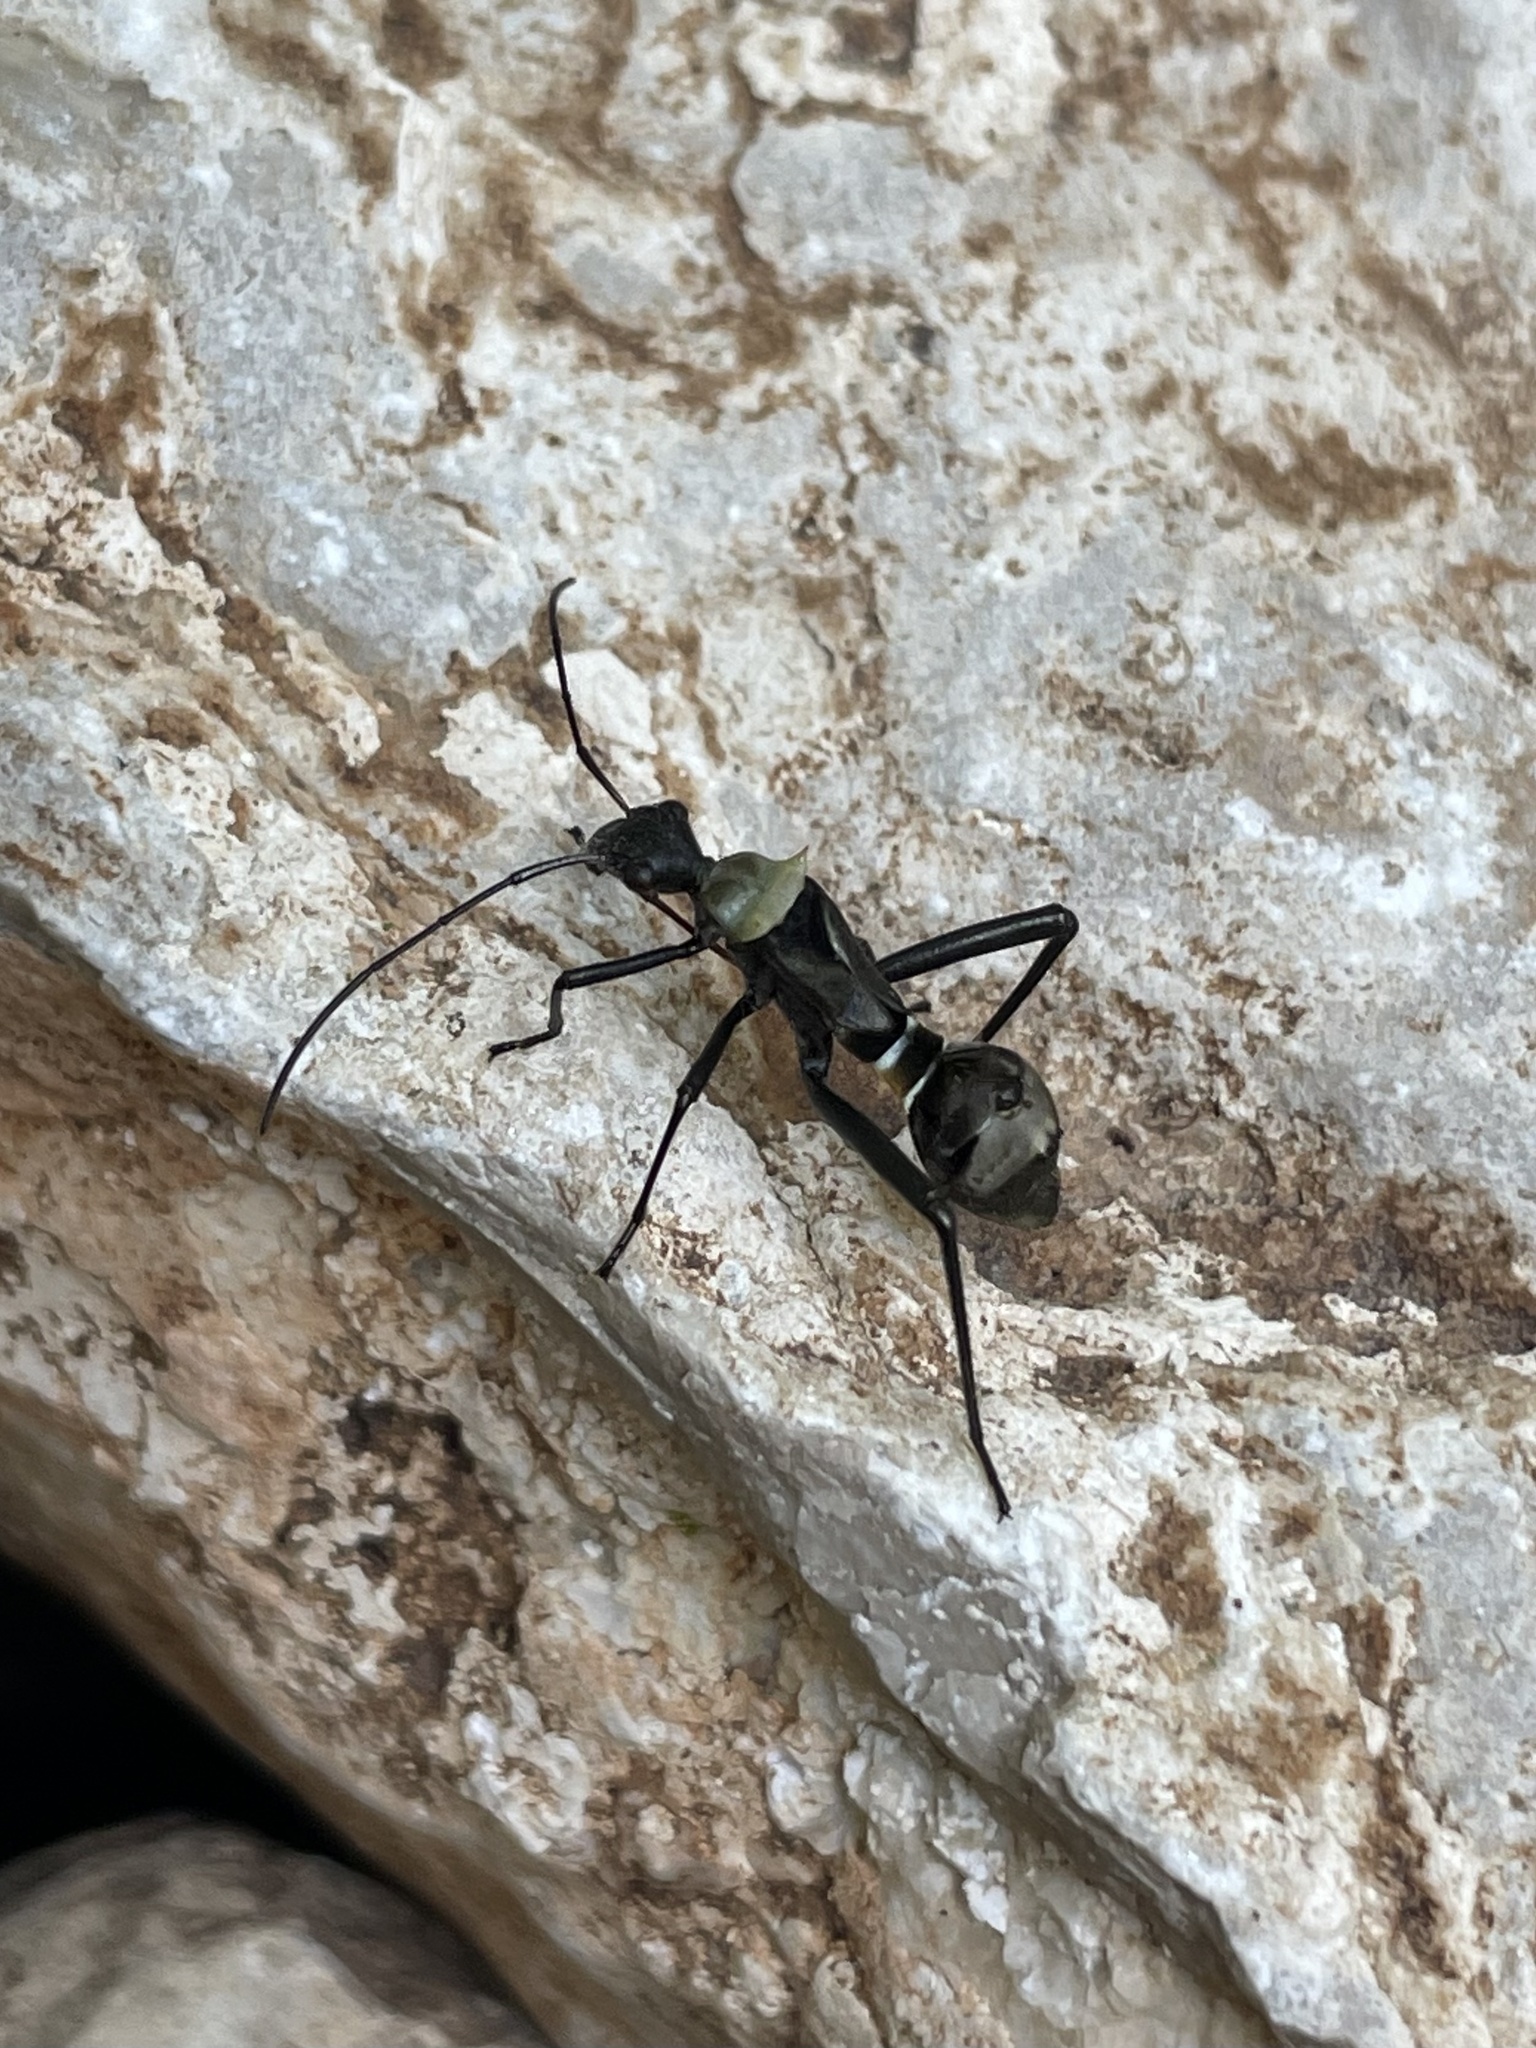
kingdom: Animalia
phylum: Arthropoda
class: Insecta
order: Hemiptera
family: Alydidae
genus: Hyalymenus
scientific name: Hyalymenus tarsatus
